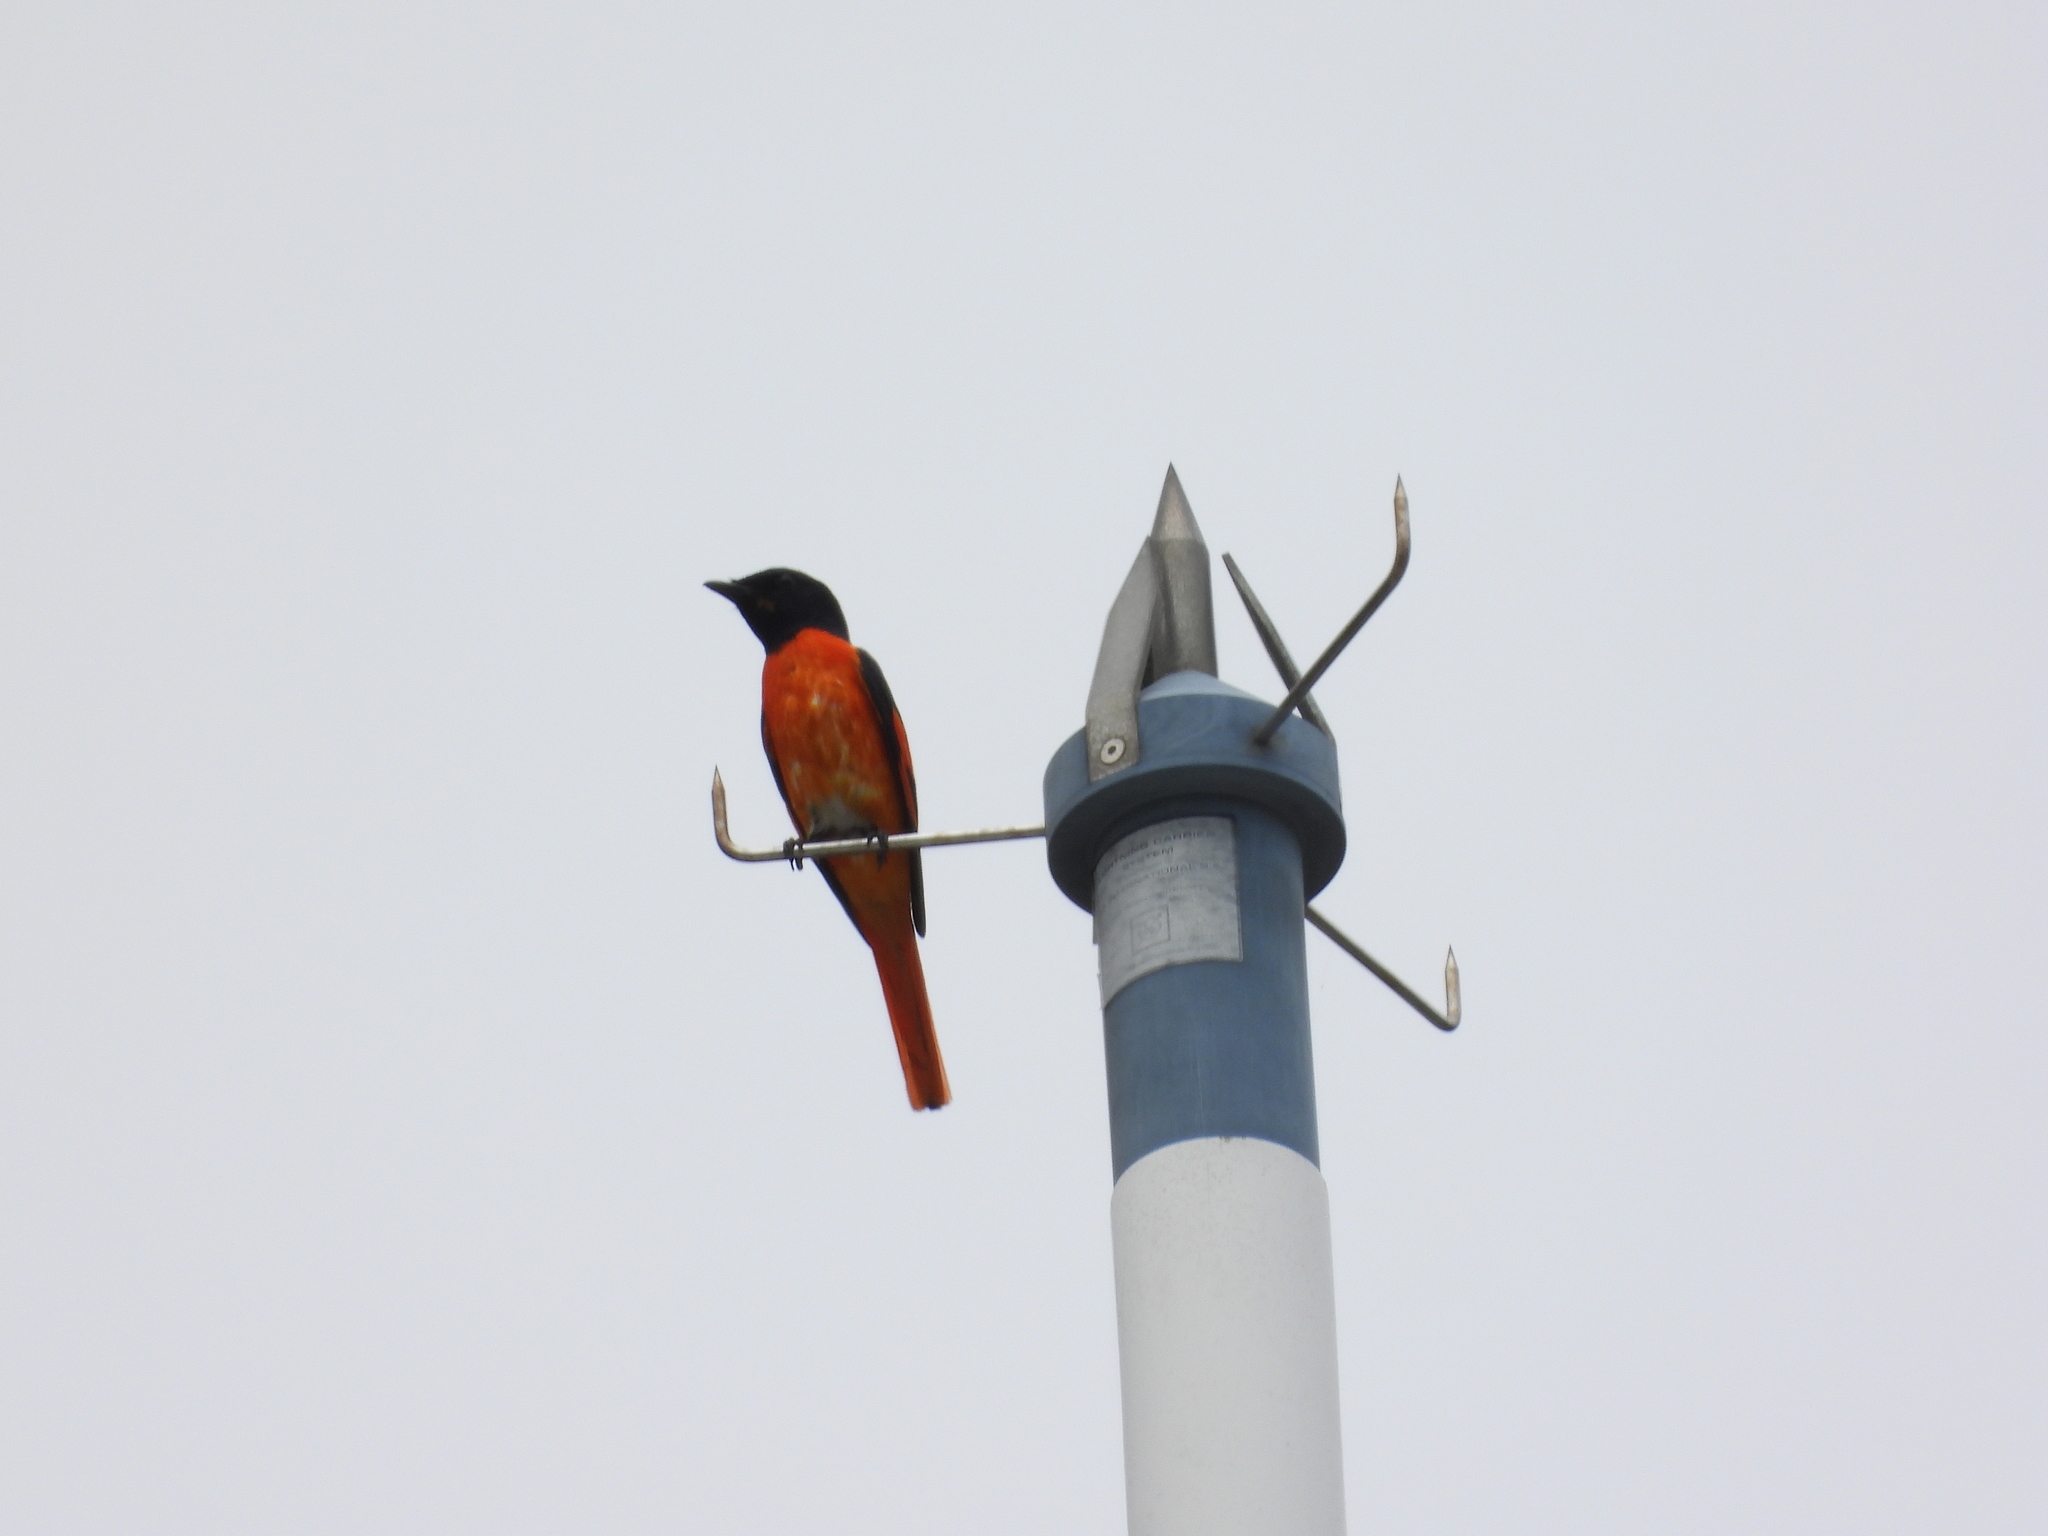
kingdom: Animalia
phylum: Chordata
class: Aves
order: Passeriformes
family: Campephagidae
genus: Pericrocotus
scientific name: Pericrocotus speciosus
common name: Scarlet minivet
